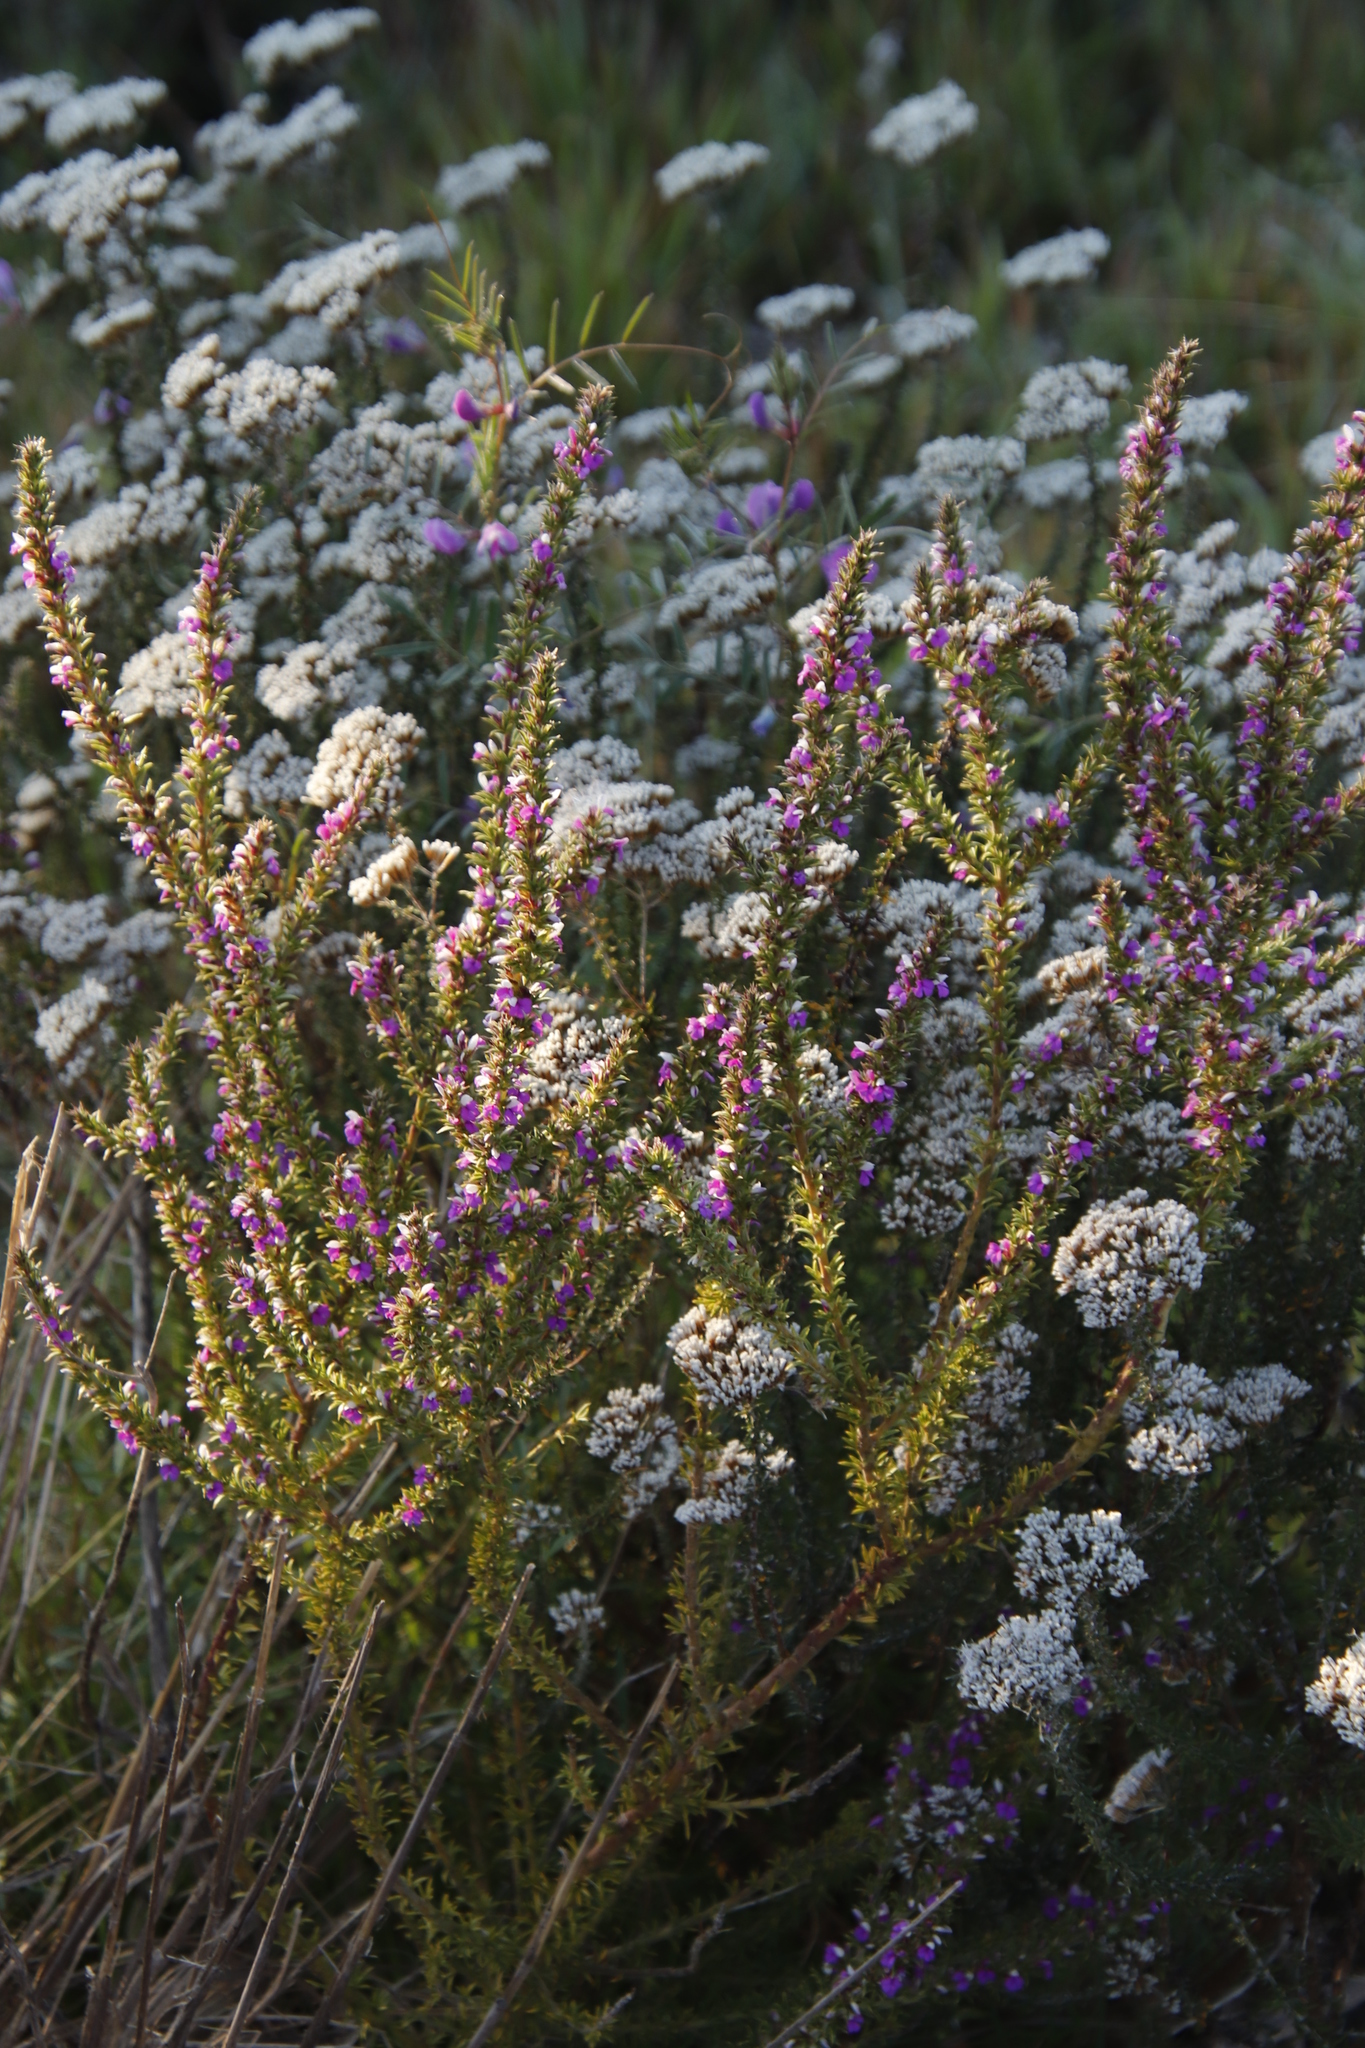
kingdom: Plantae
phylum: Tracheophyta
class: Magnoliopsida
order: Fabales
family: Polygalaceae
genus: Muraltia
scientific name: Muraltia heisteria
